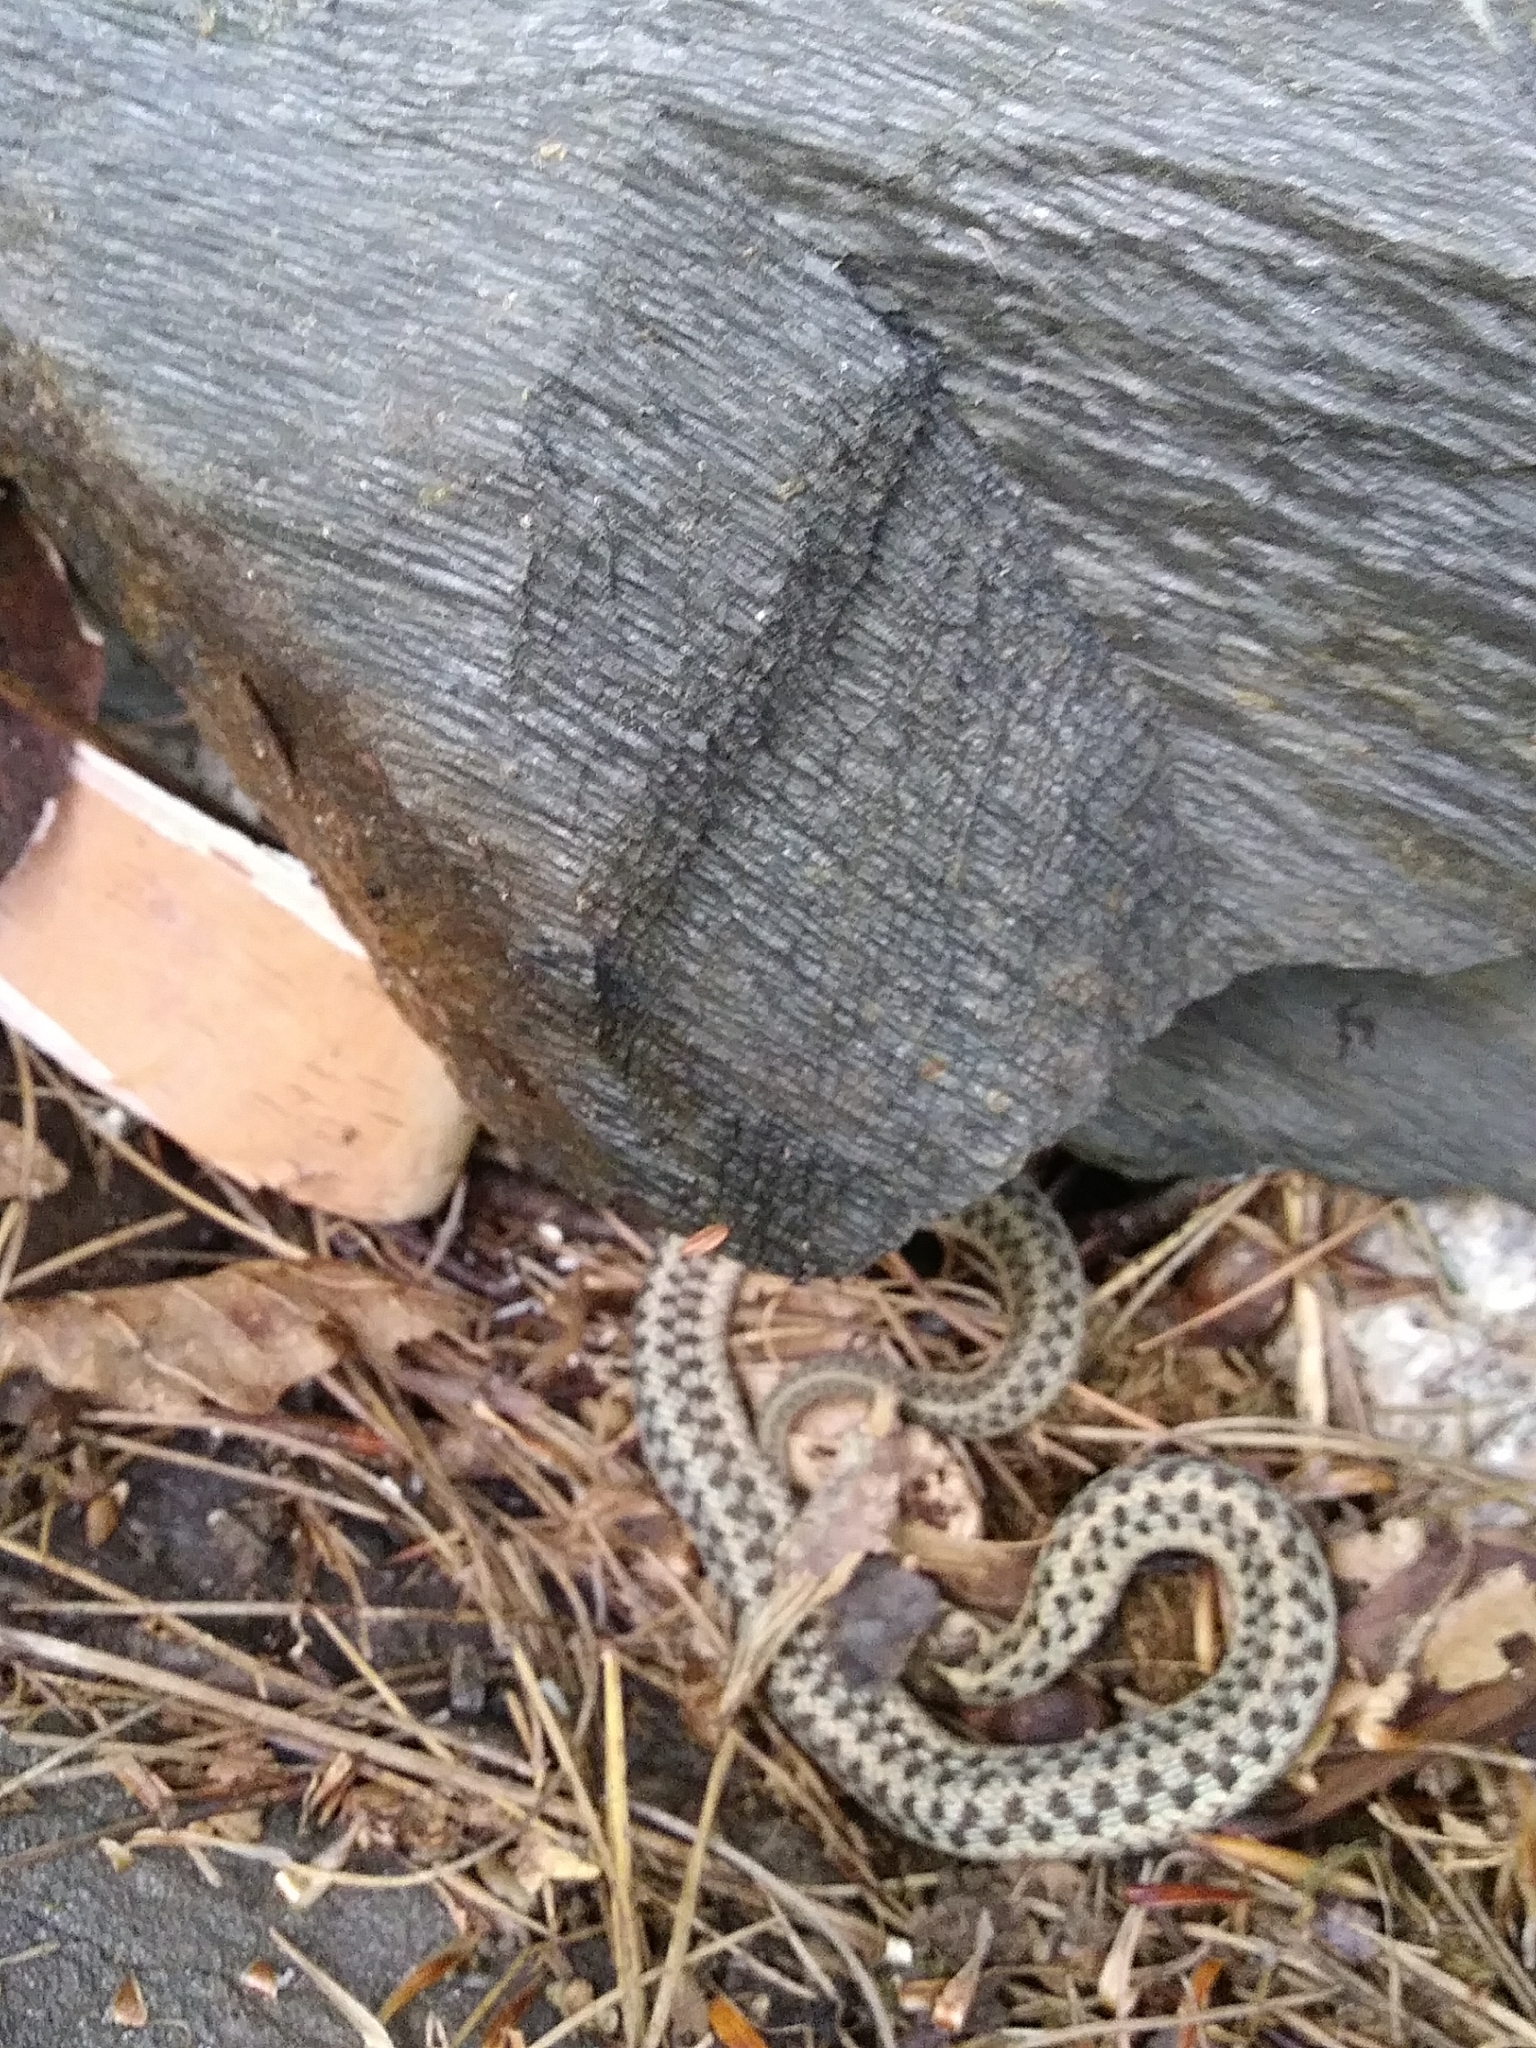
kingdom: Animalia
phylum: Chordata
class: Squamata
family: Colubridae
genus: Thamnophis
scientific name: Thamnophis sirtalis
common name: Common garter snake
